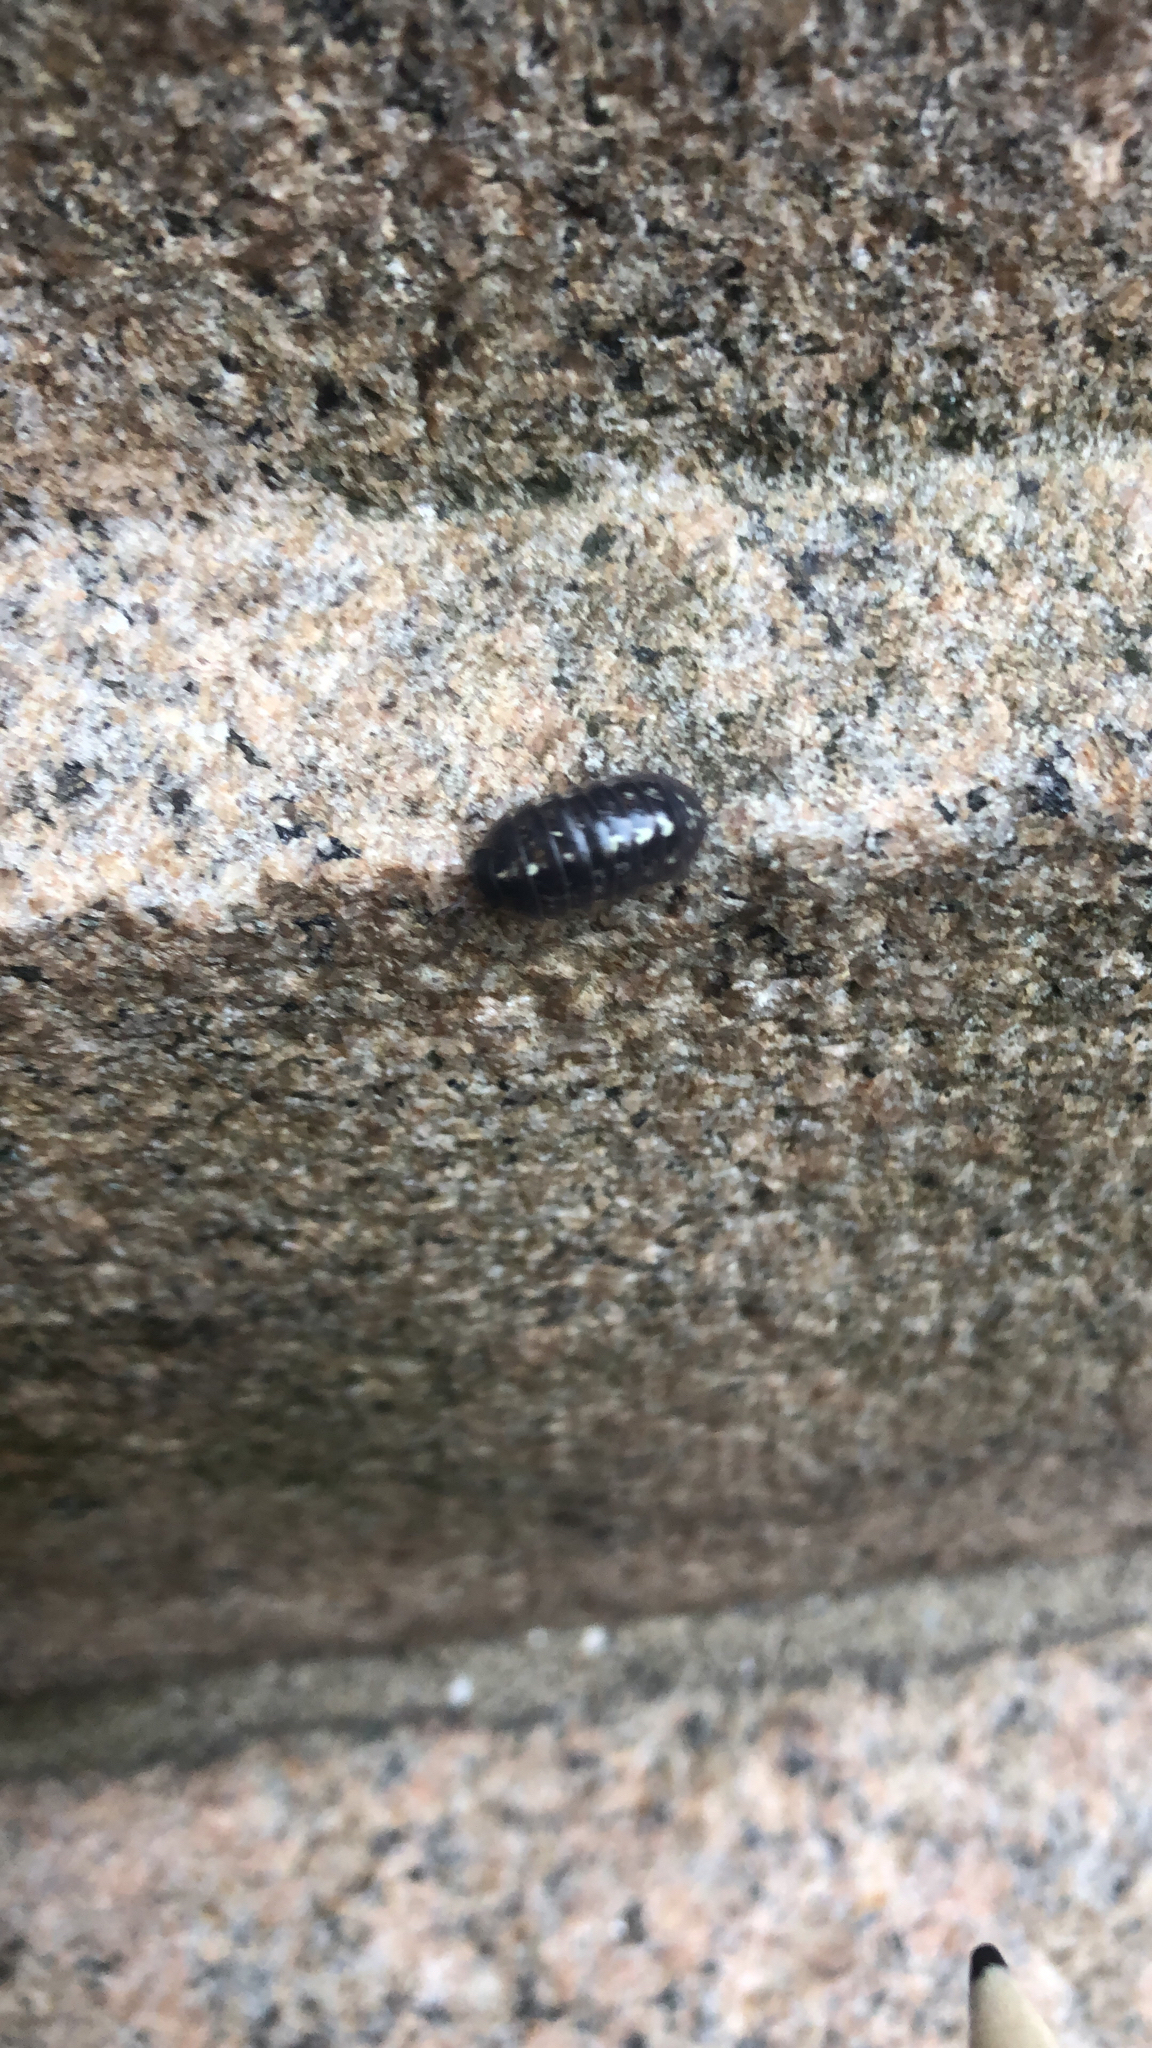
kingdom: Animalia
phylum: Arthropoda
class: Malacostraca
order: Isopoda
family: Armadillidiidae
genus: Armadillidium
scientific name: Armadillidium vulgare
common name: Common pill woodlouse
